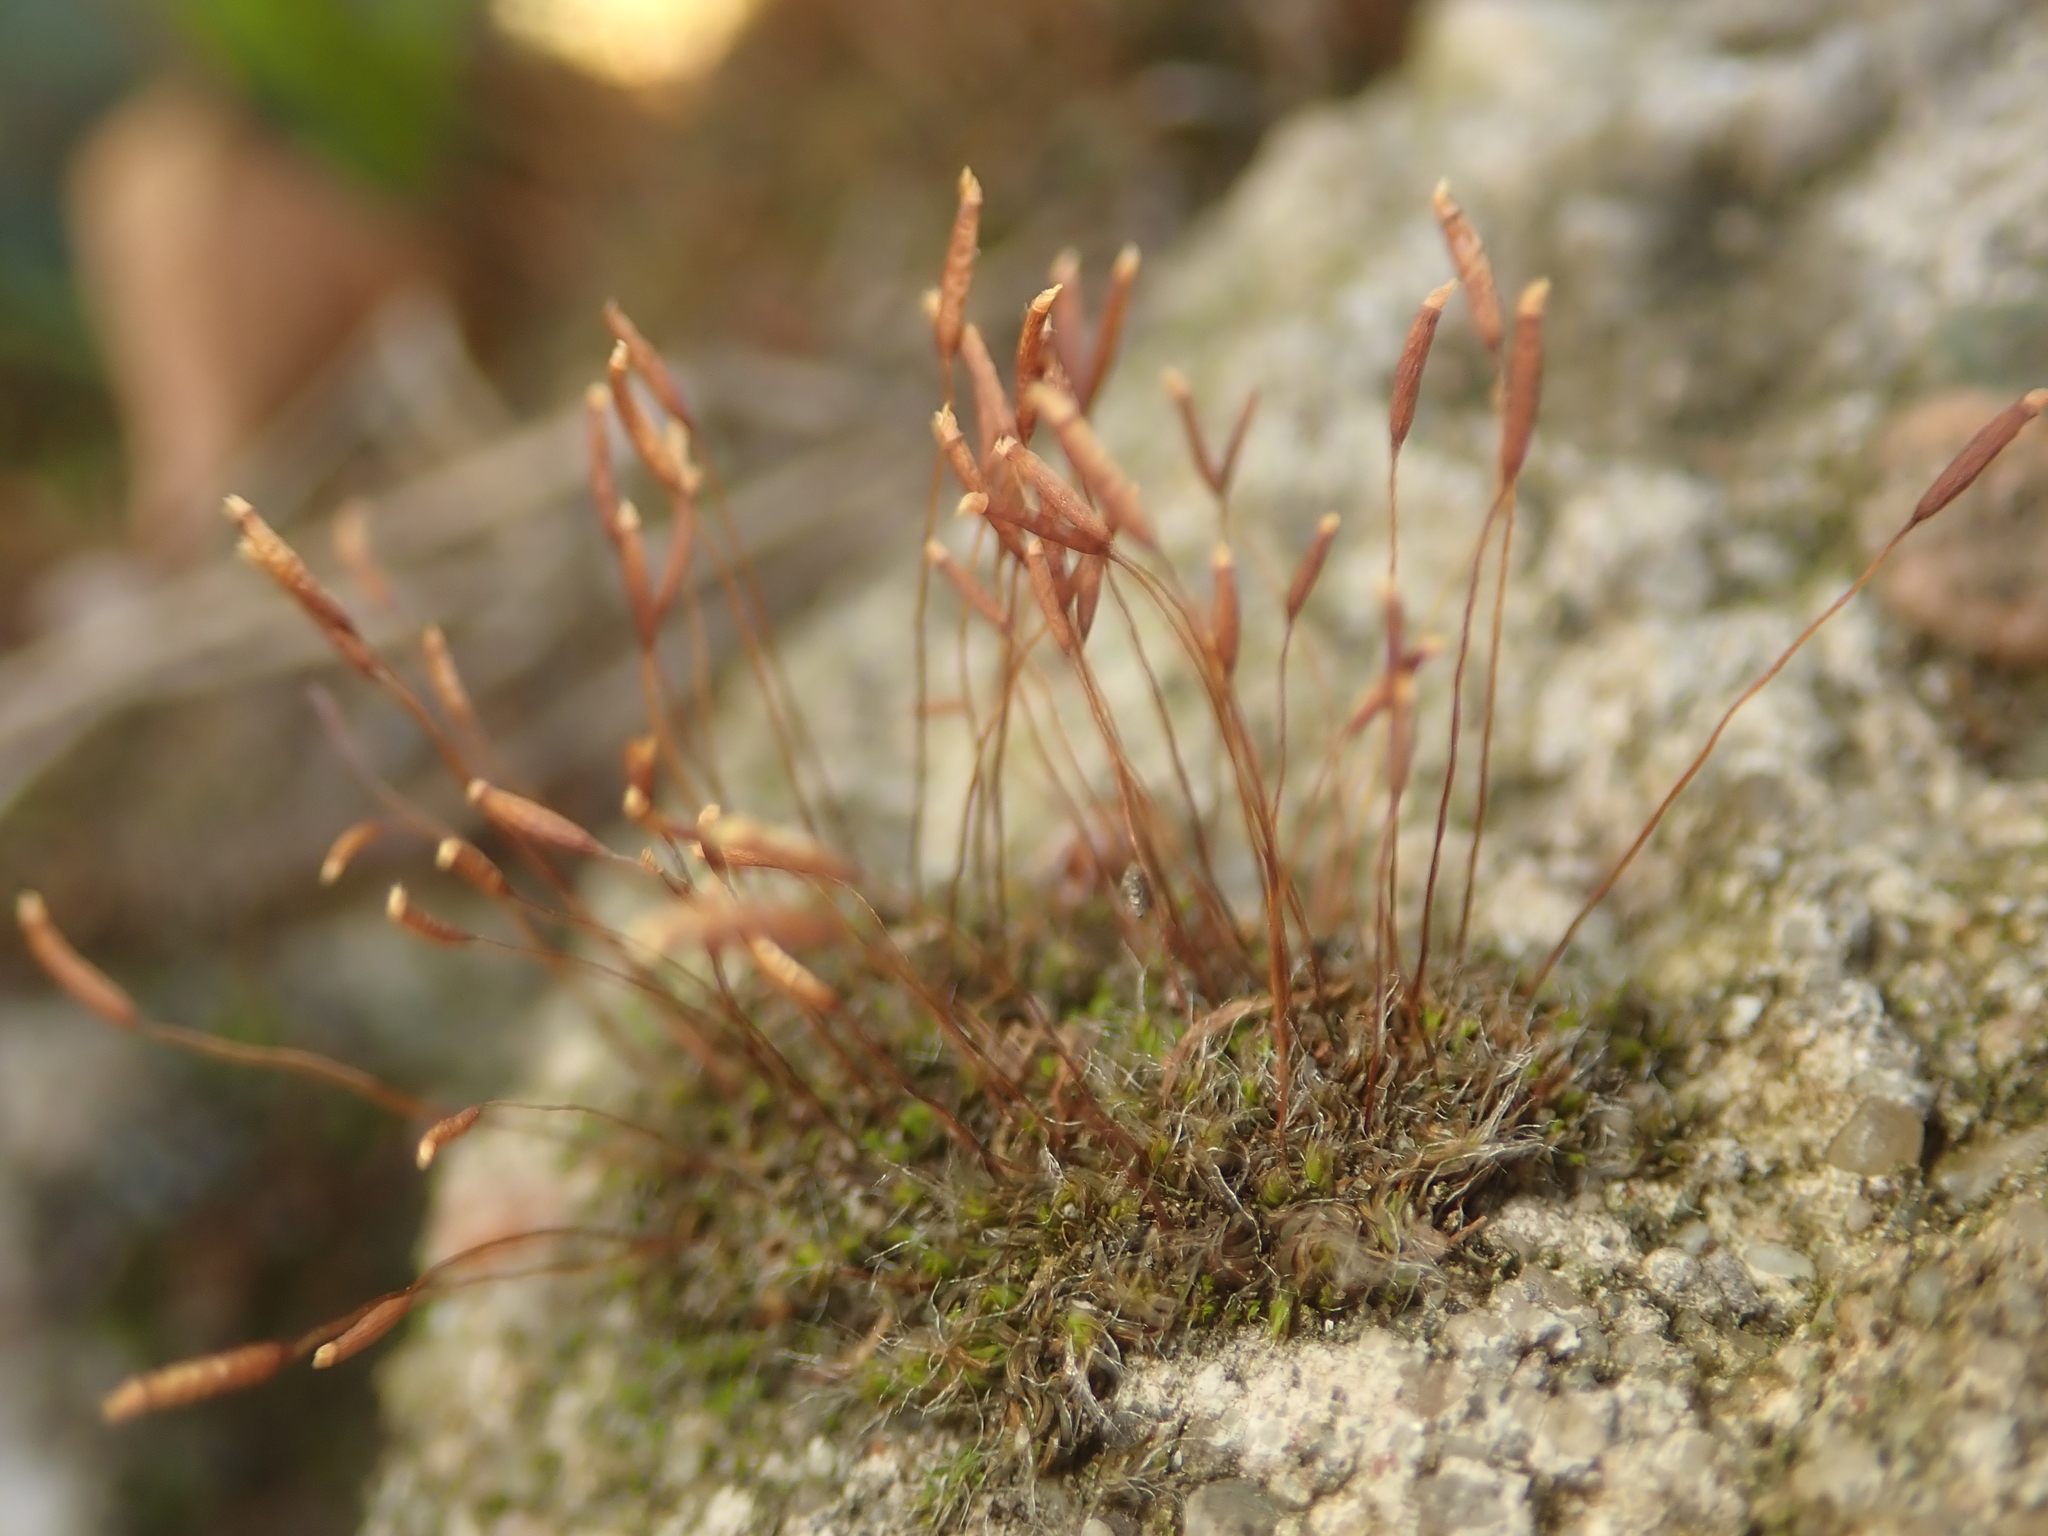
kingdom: Plantae
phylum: Bryophyta
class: Bryopsida
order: Pottiales
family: Pottiaceae
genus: Tortula
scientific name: Tortula muralis
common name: Wall screw-moss
